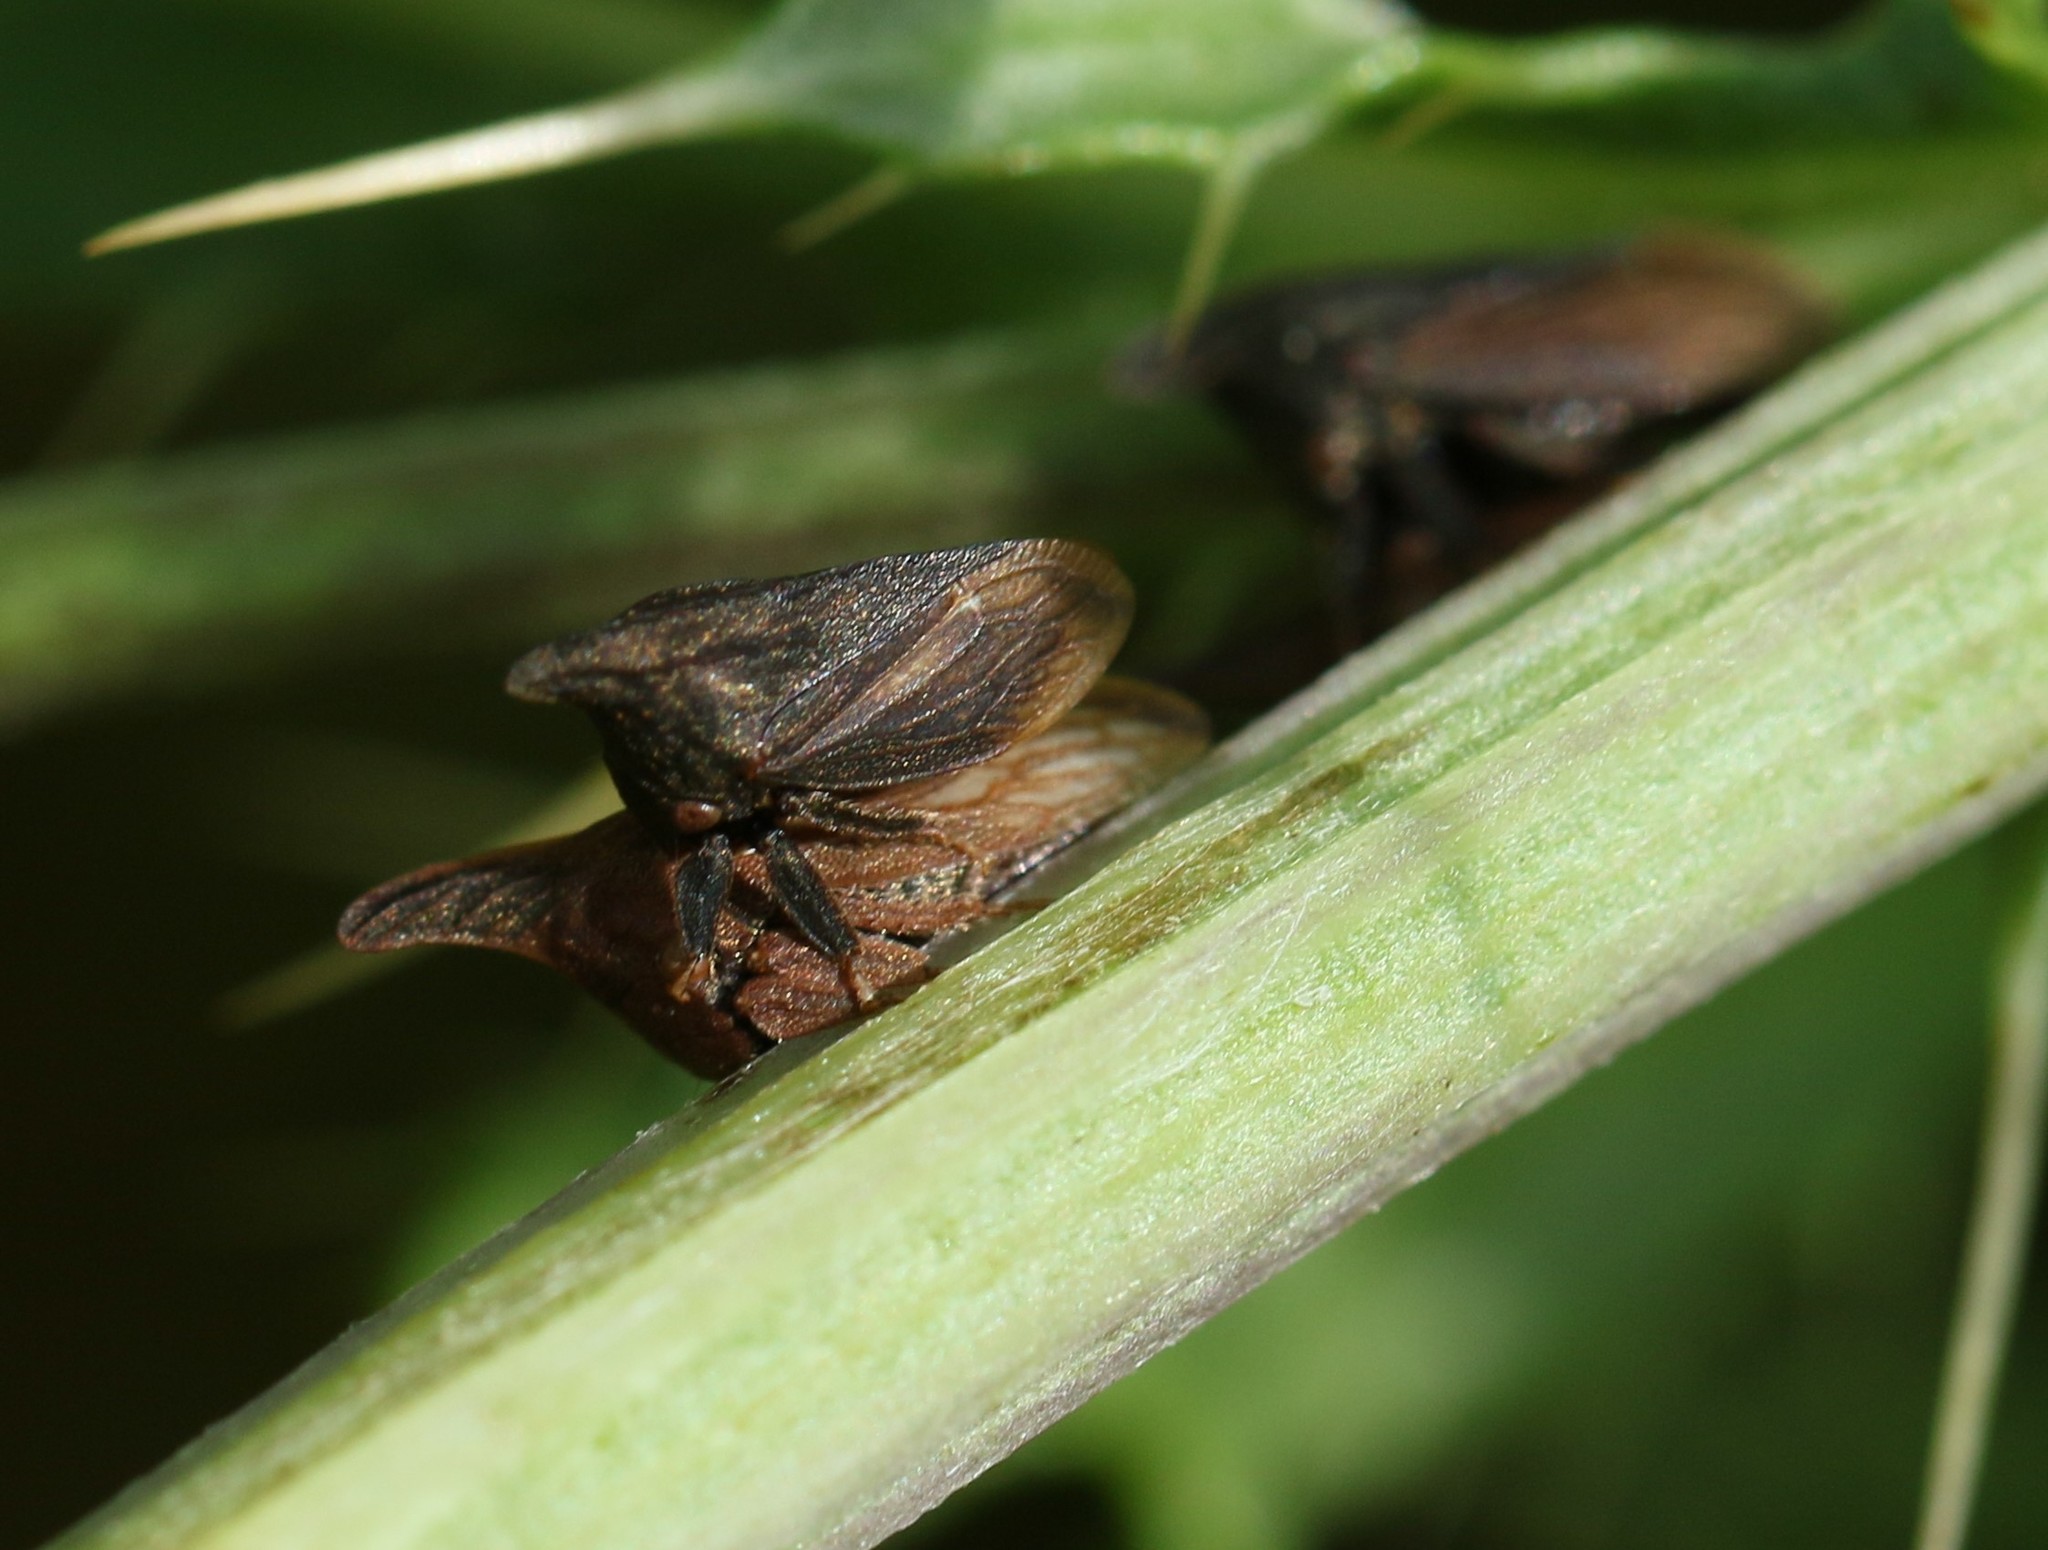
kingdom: Animalia
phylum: Arthropoda
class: Insecta
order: Hemiptera
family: Membracidae
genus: Enchenopa
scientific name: Enchenopa latipes
